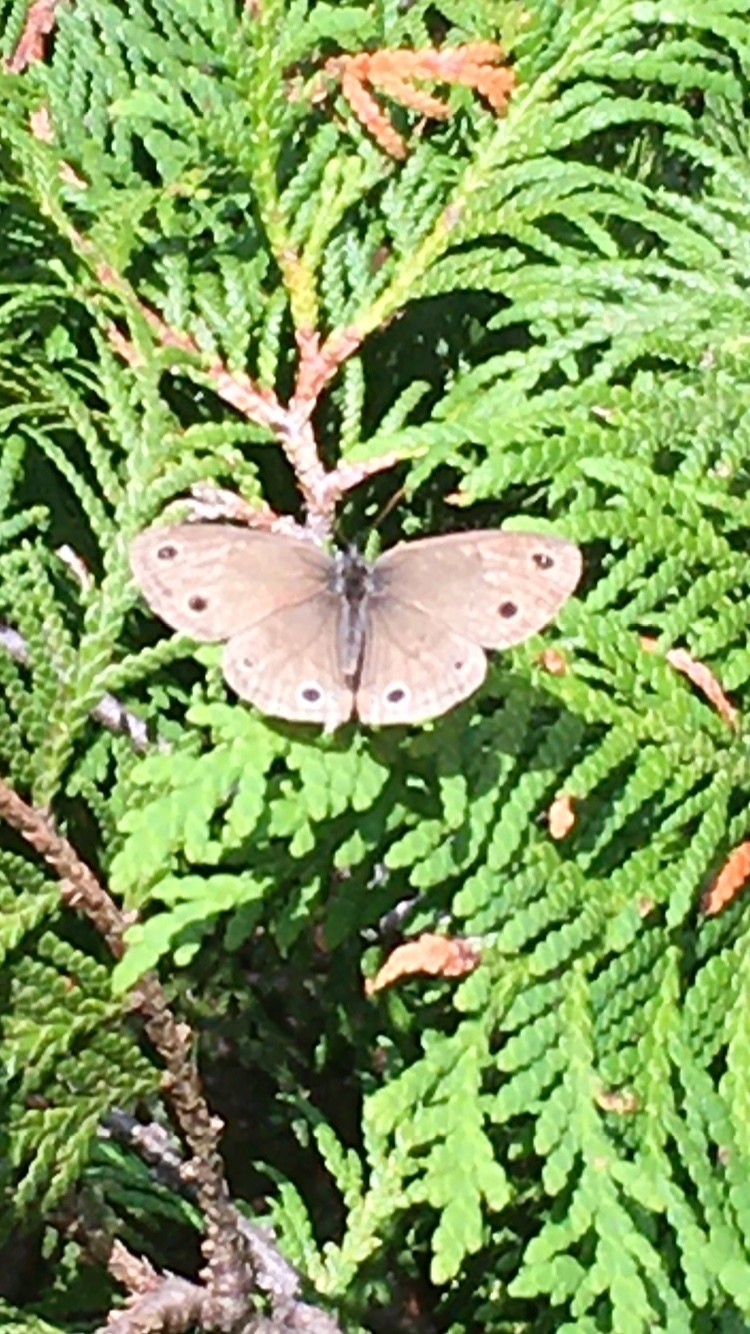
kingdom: Animalia
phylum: Arthropoda
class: Insecta
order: Lepidoptera
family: Nymphalidae
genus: Euptychia
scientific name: Euptychia cymela
